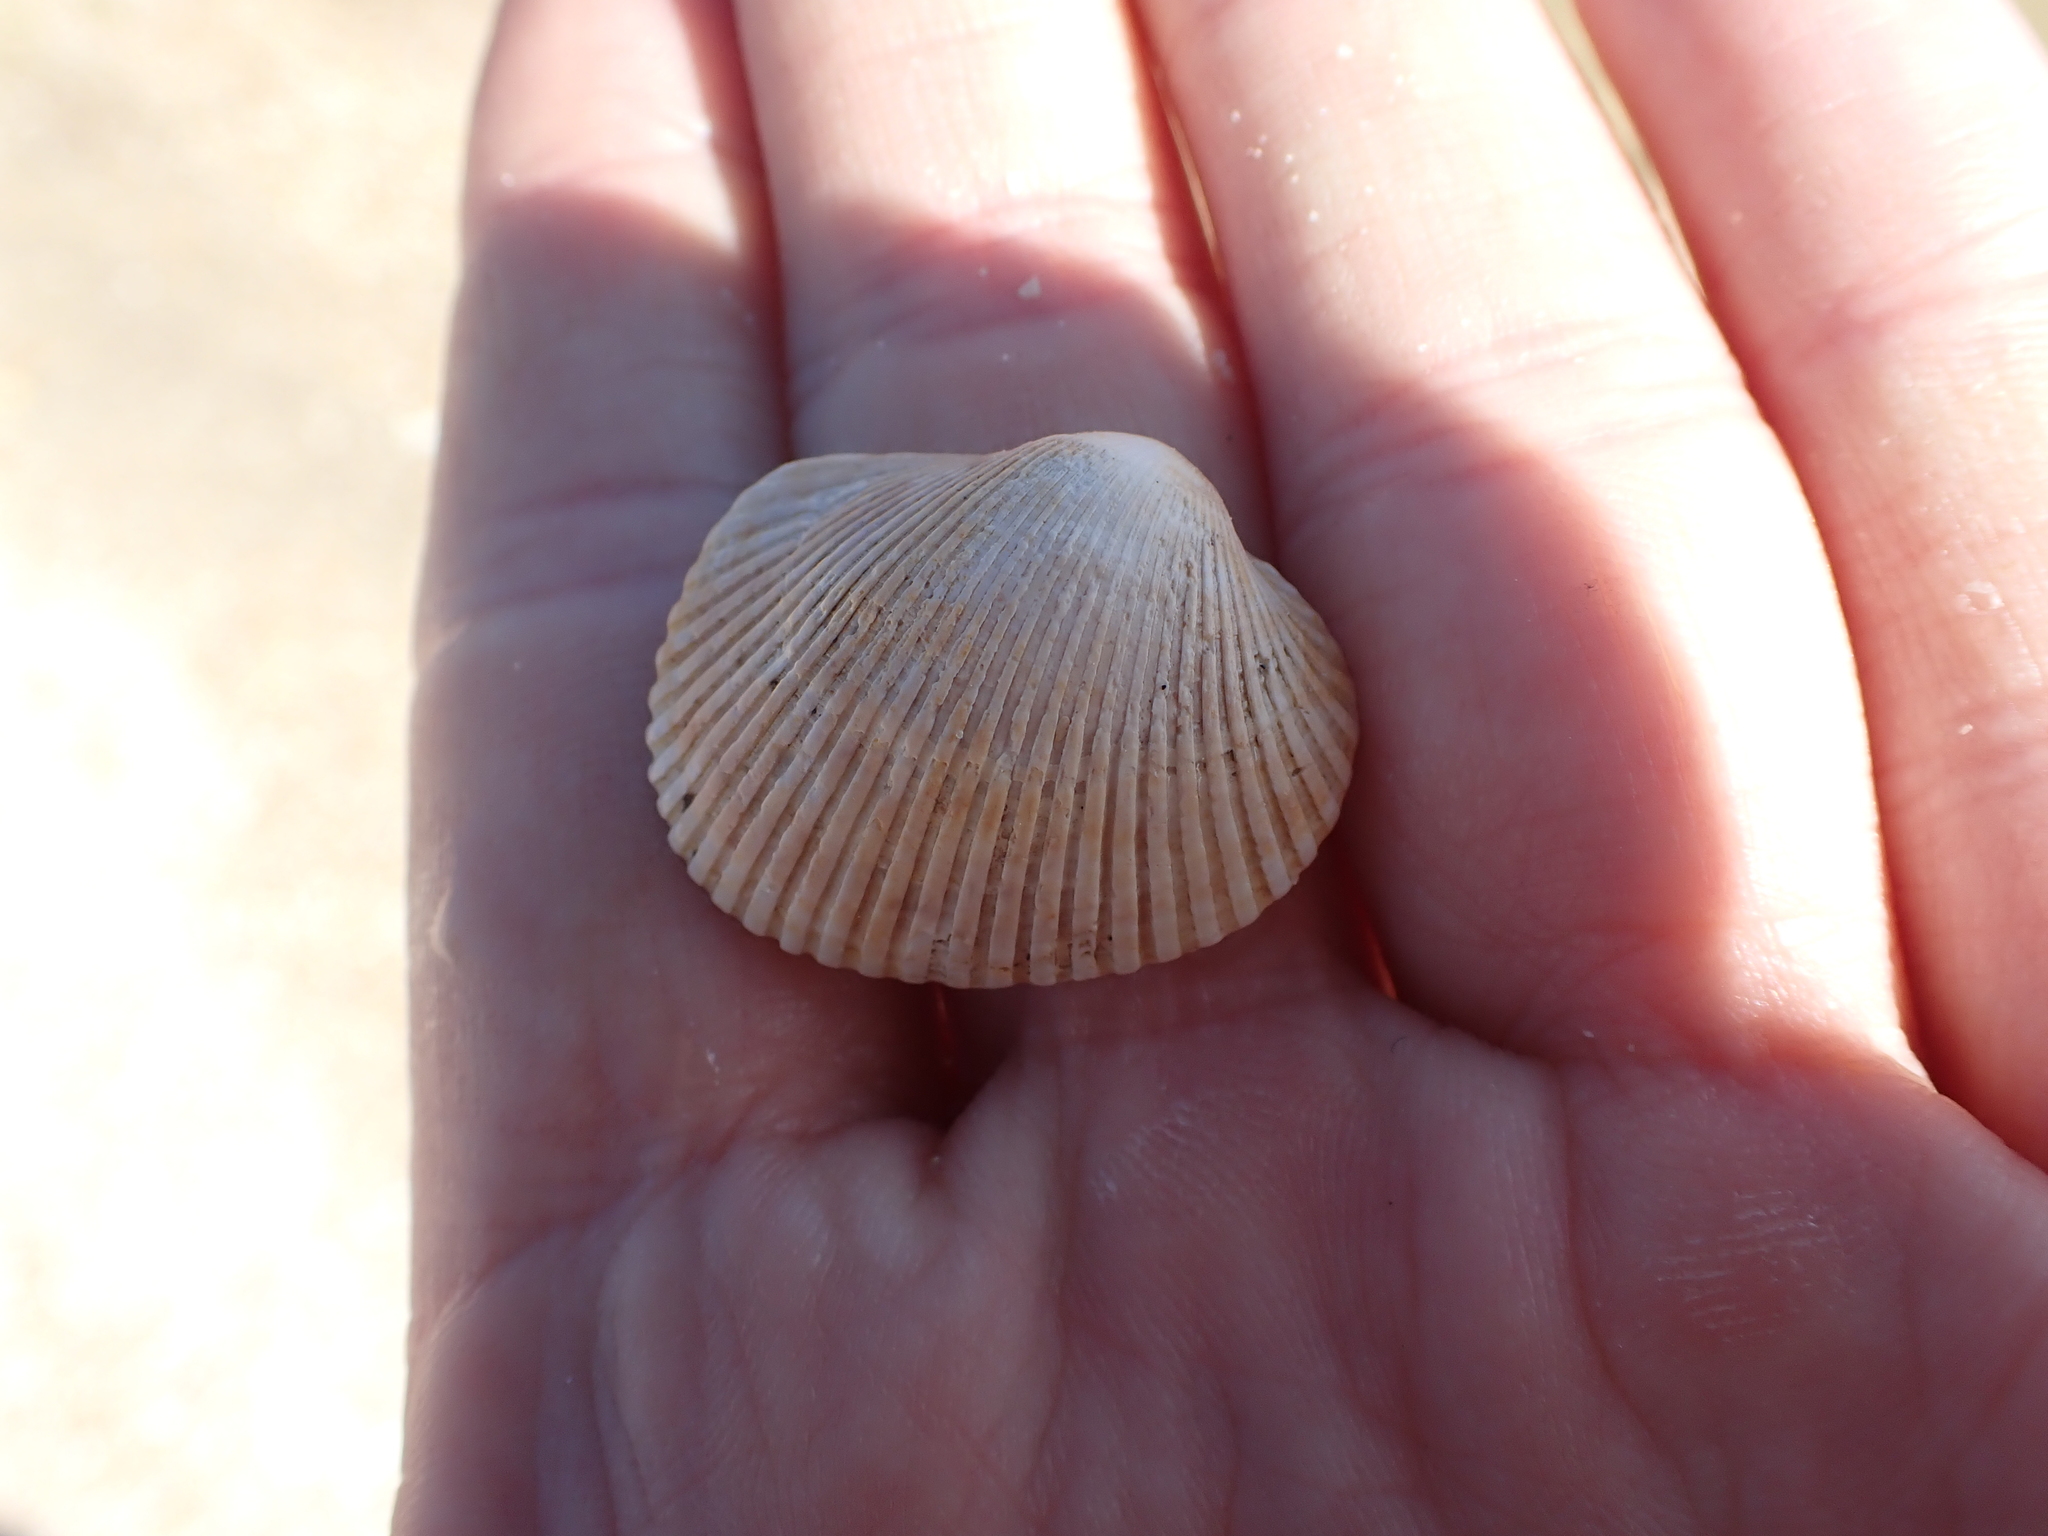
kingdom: Animalia
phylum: Mollusca
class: Bivalvia
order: Arcida
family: Arcidae
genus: Lunarca
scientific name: Lunarca ovalis
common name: Blood ark
